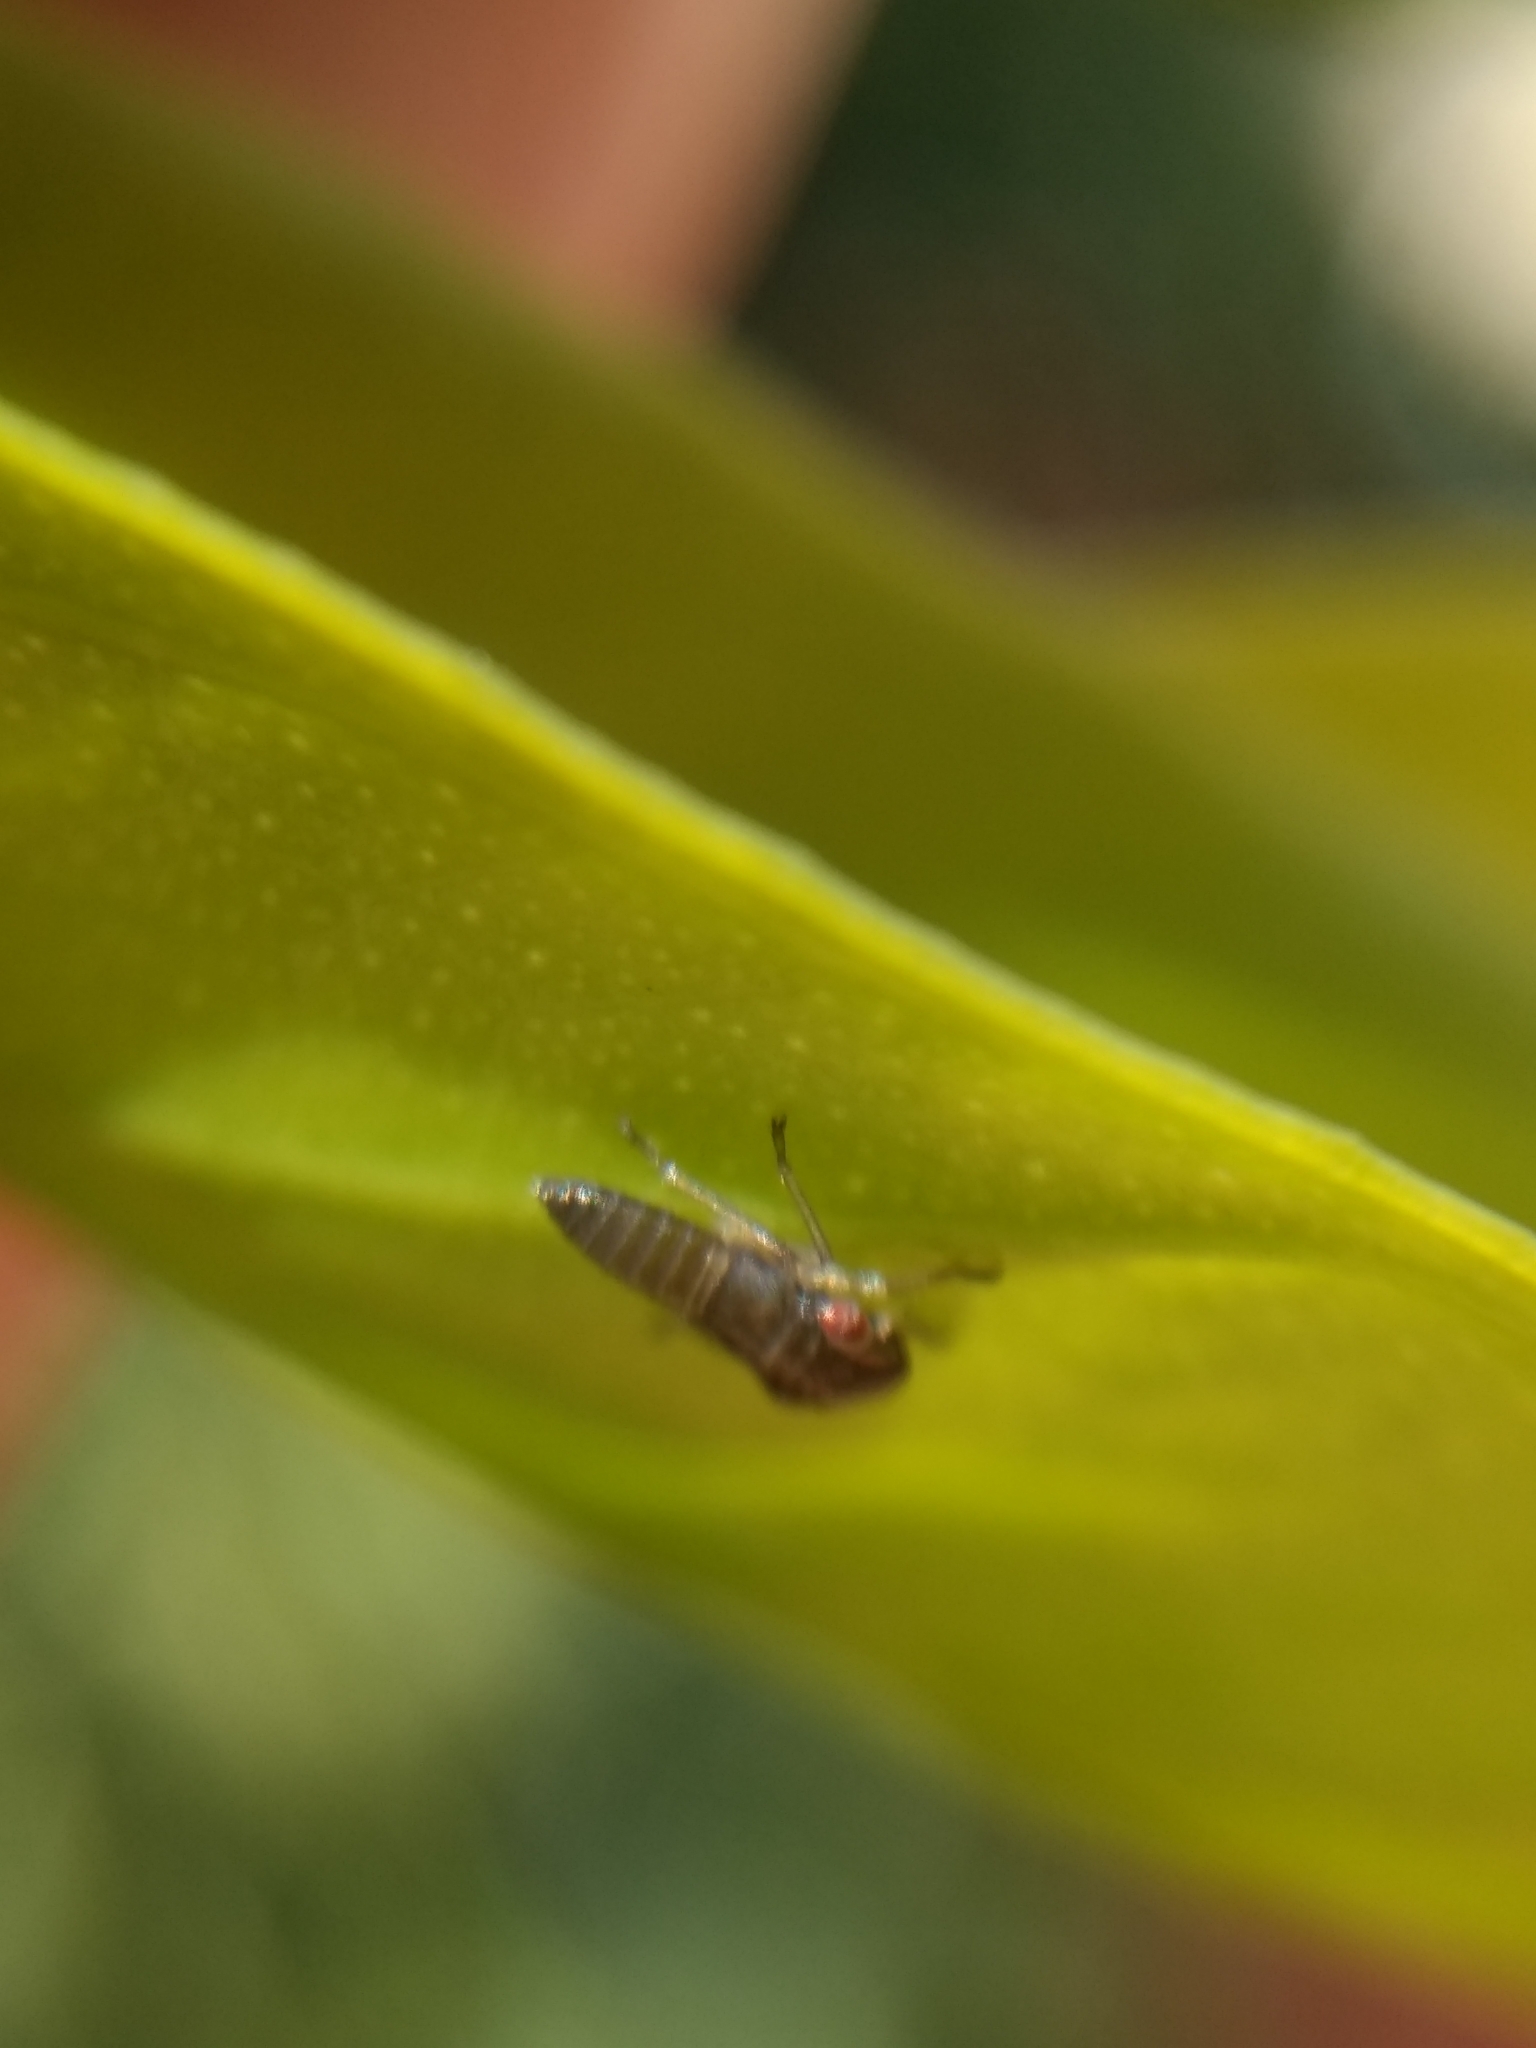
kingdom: Animalia
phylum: Arthropoda
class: Insecta
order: Hemiptera
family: Cicadellidae
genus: Homalodisca
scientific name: Homalodisca
